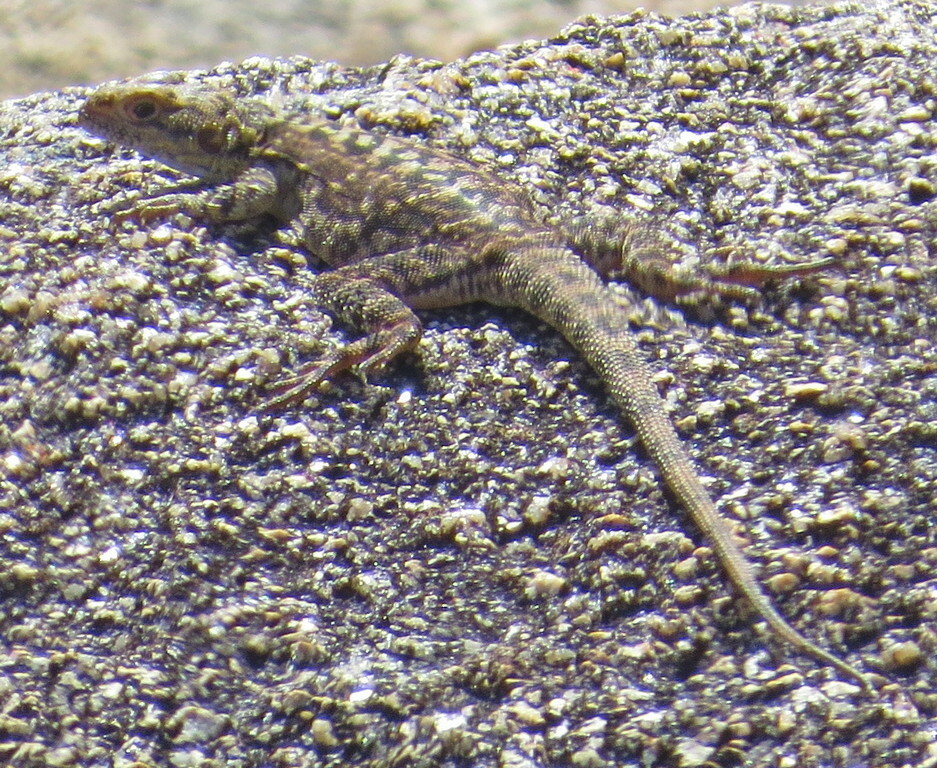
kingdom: Animalia
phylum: Chordata
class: Squamata
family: Agamidae
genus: Ctenophorus
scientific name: Ctenophorus ornatus
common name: Ornate crevice-dragon
